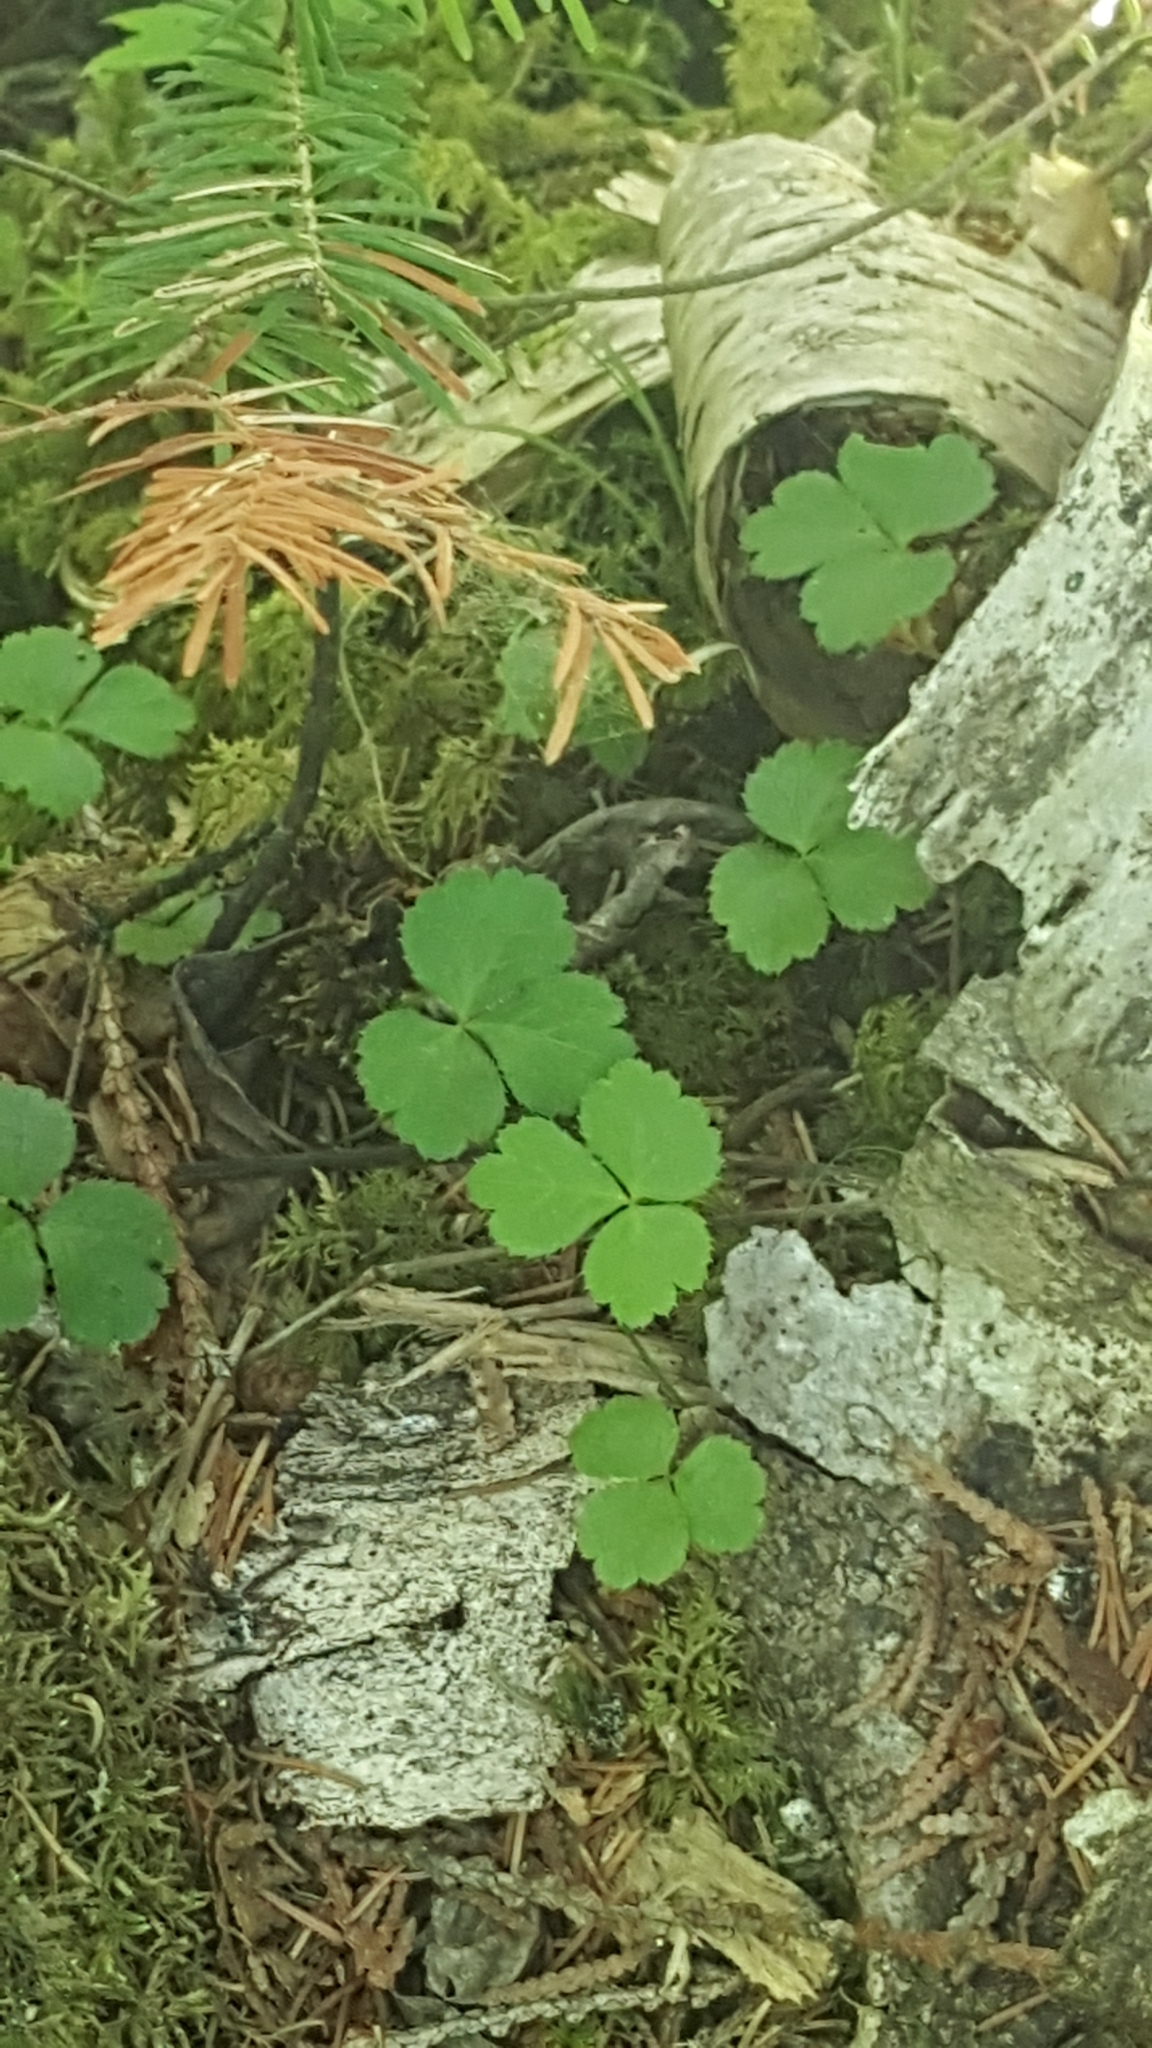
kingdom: Plantae
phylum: Tracheophyta
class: Magnoliopsida
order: Ranunculales
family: Ranunculaceae
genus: Coptis
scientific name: Coptis trifolia
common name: Canker-root
